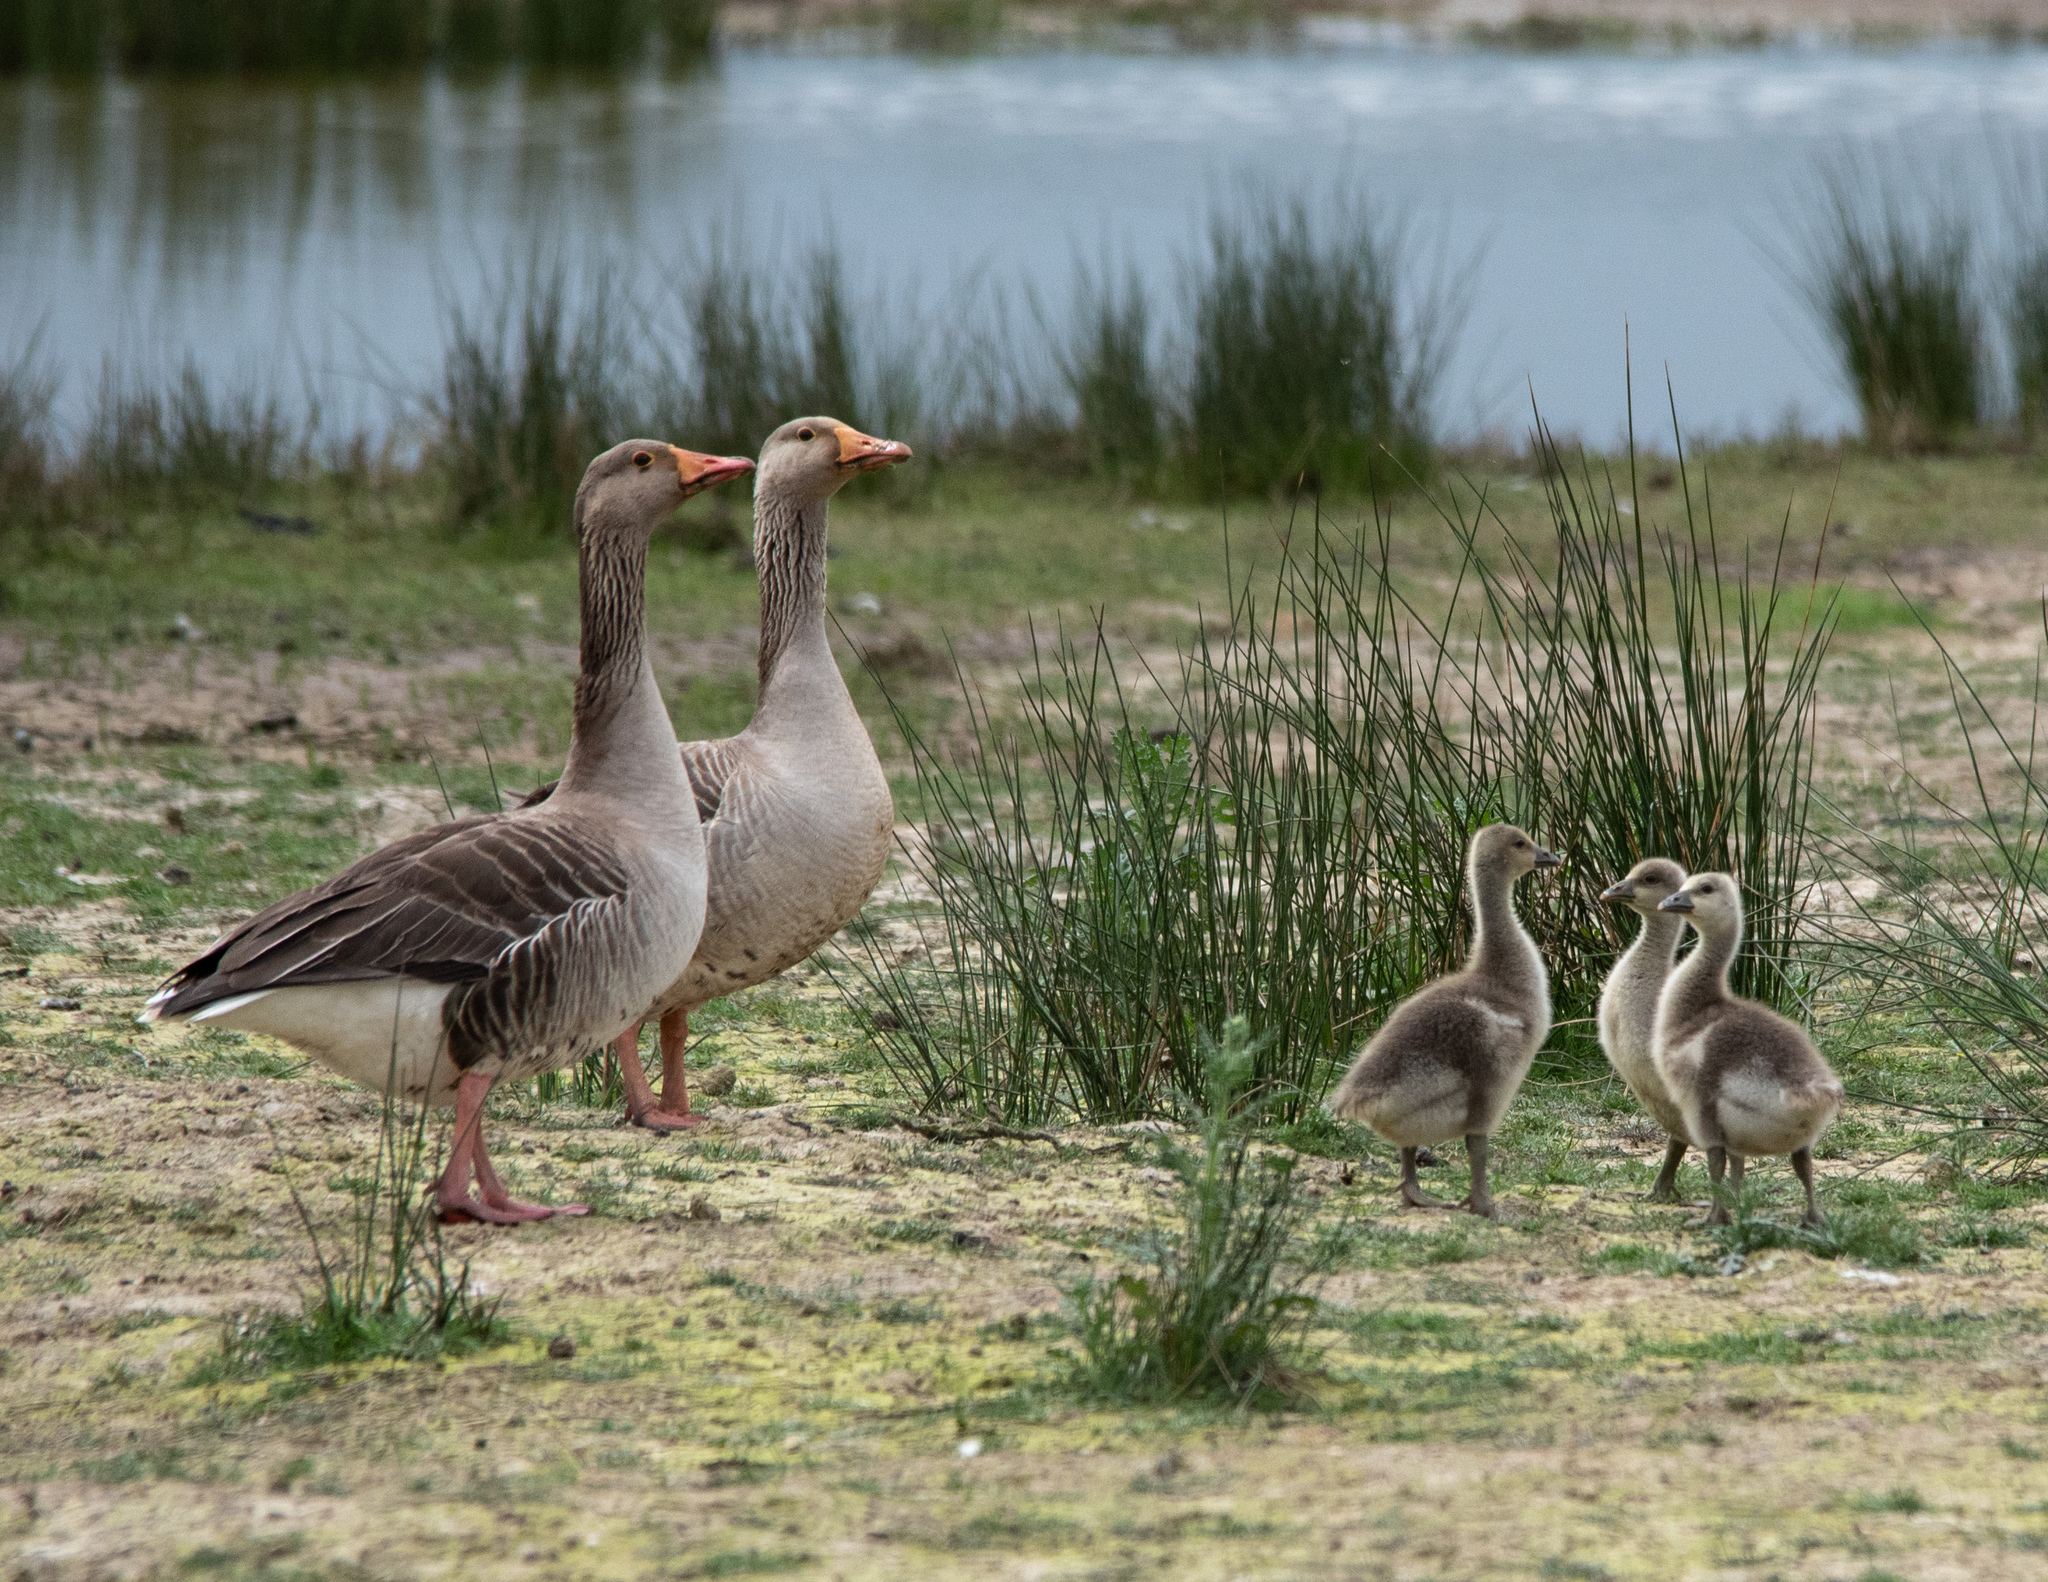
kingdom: Animalia
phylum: Chordata
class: Aves
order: Anseriformes
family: Anatidae
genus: Anser
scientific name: Anser anser
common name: Greylag goose
